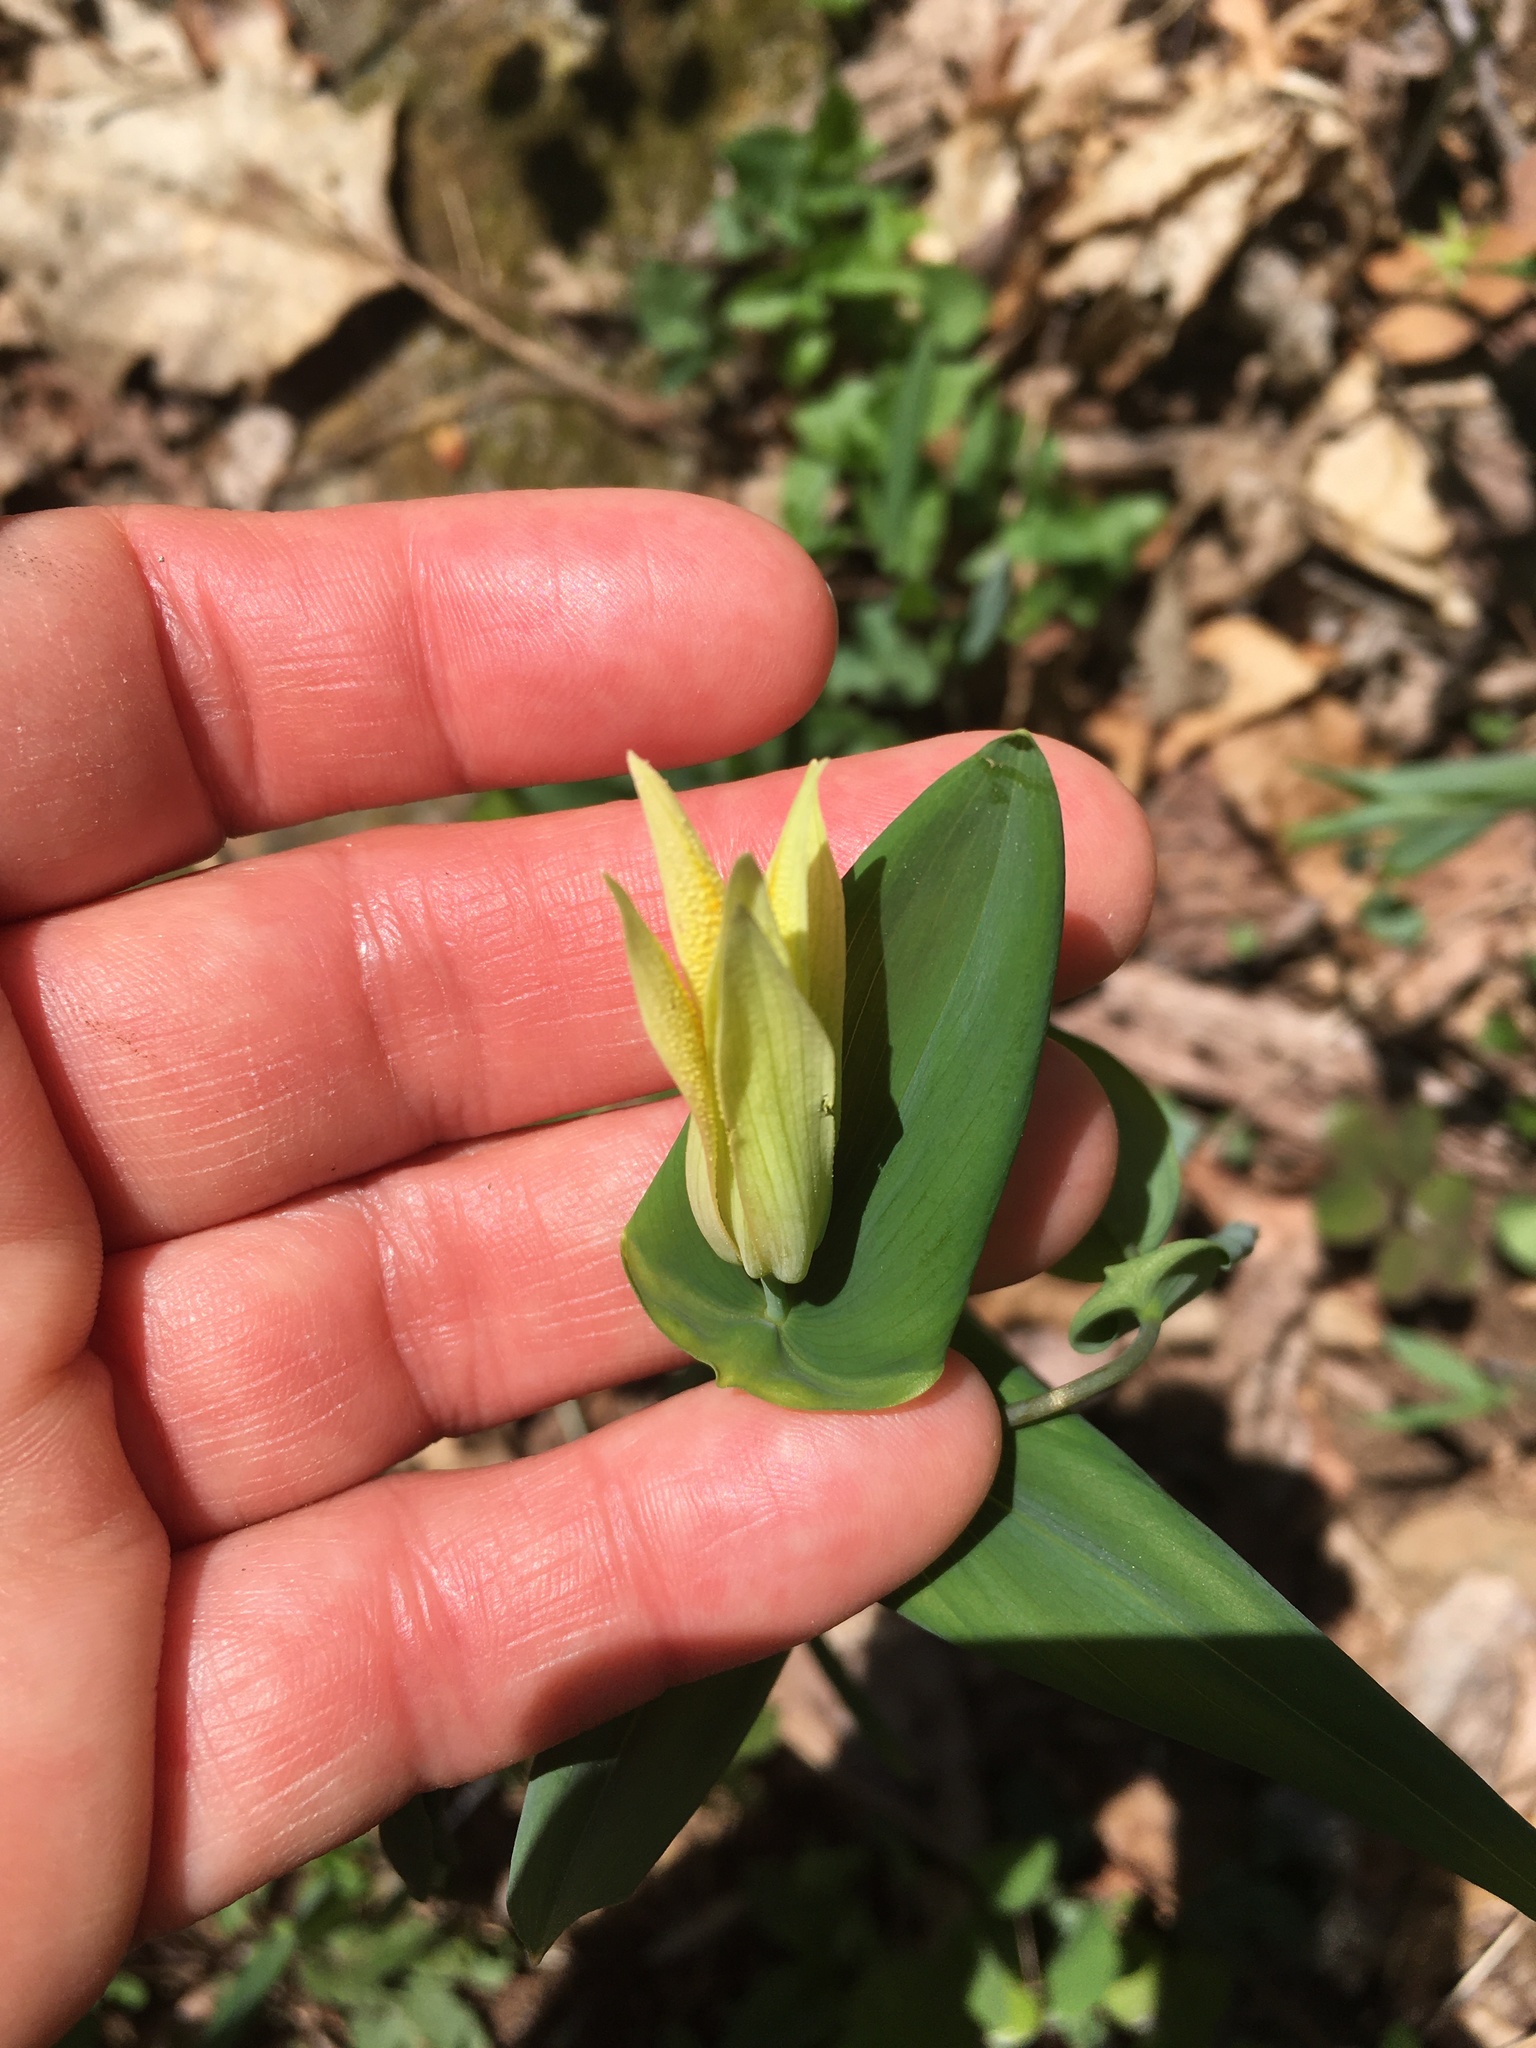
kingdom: Plantae
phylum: Tracheophyta
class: Liliopsida
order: Liliales
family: Colchicaceae
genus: Uvularia
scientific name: Uvularia perfoliata
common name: Perfoliate bellwort
